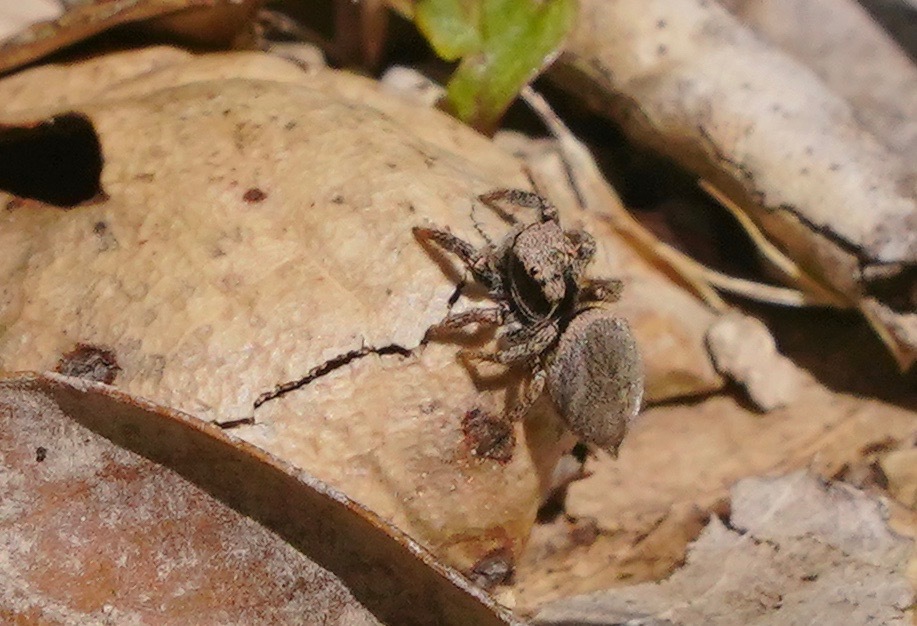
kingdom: Animalia
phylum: Arthropoda
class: Arachnida
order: Araneae
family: Salticidae
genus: Habronattus
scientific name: Habronattus oregonensis
